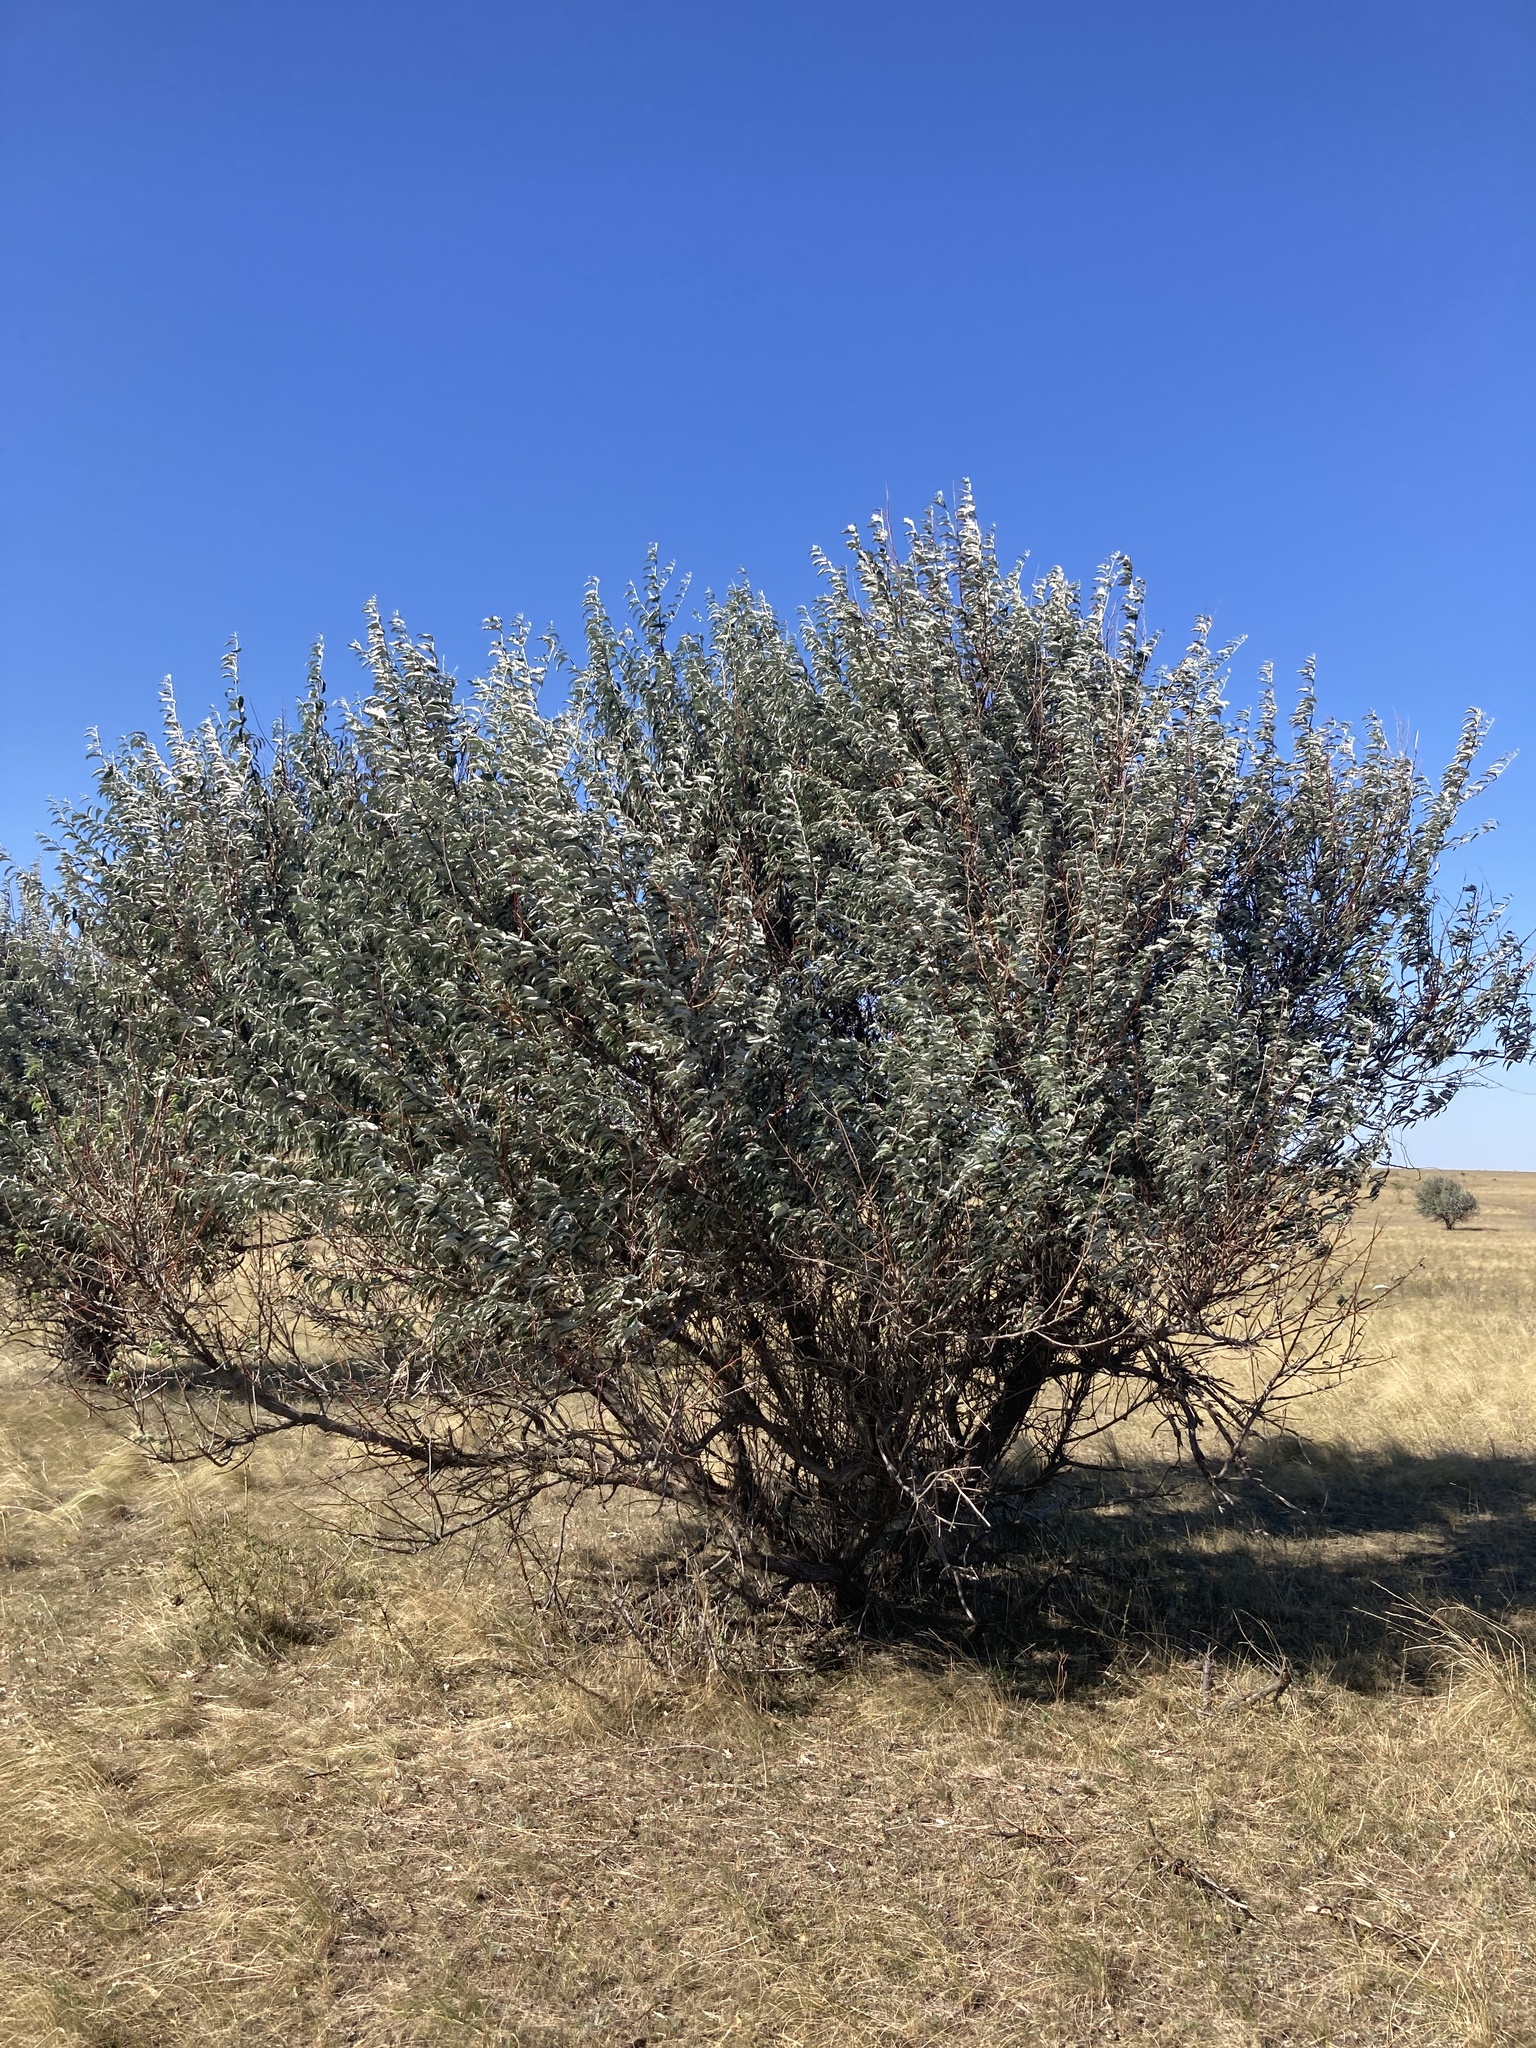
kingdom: Plantae
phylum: Tracheophyta
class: Magnoliopsida
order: Rosales
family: Elaeagnaceae
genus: Elaeagnus
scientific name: Elaeagnus angustifolia
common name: Russian olive
